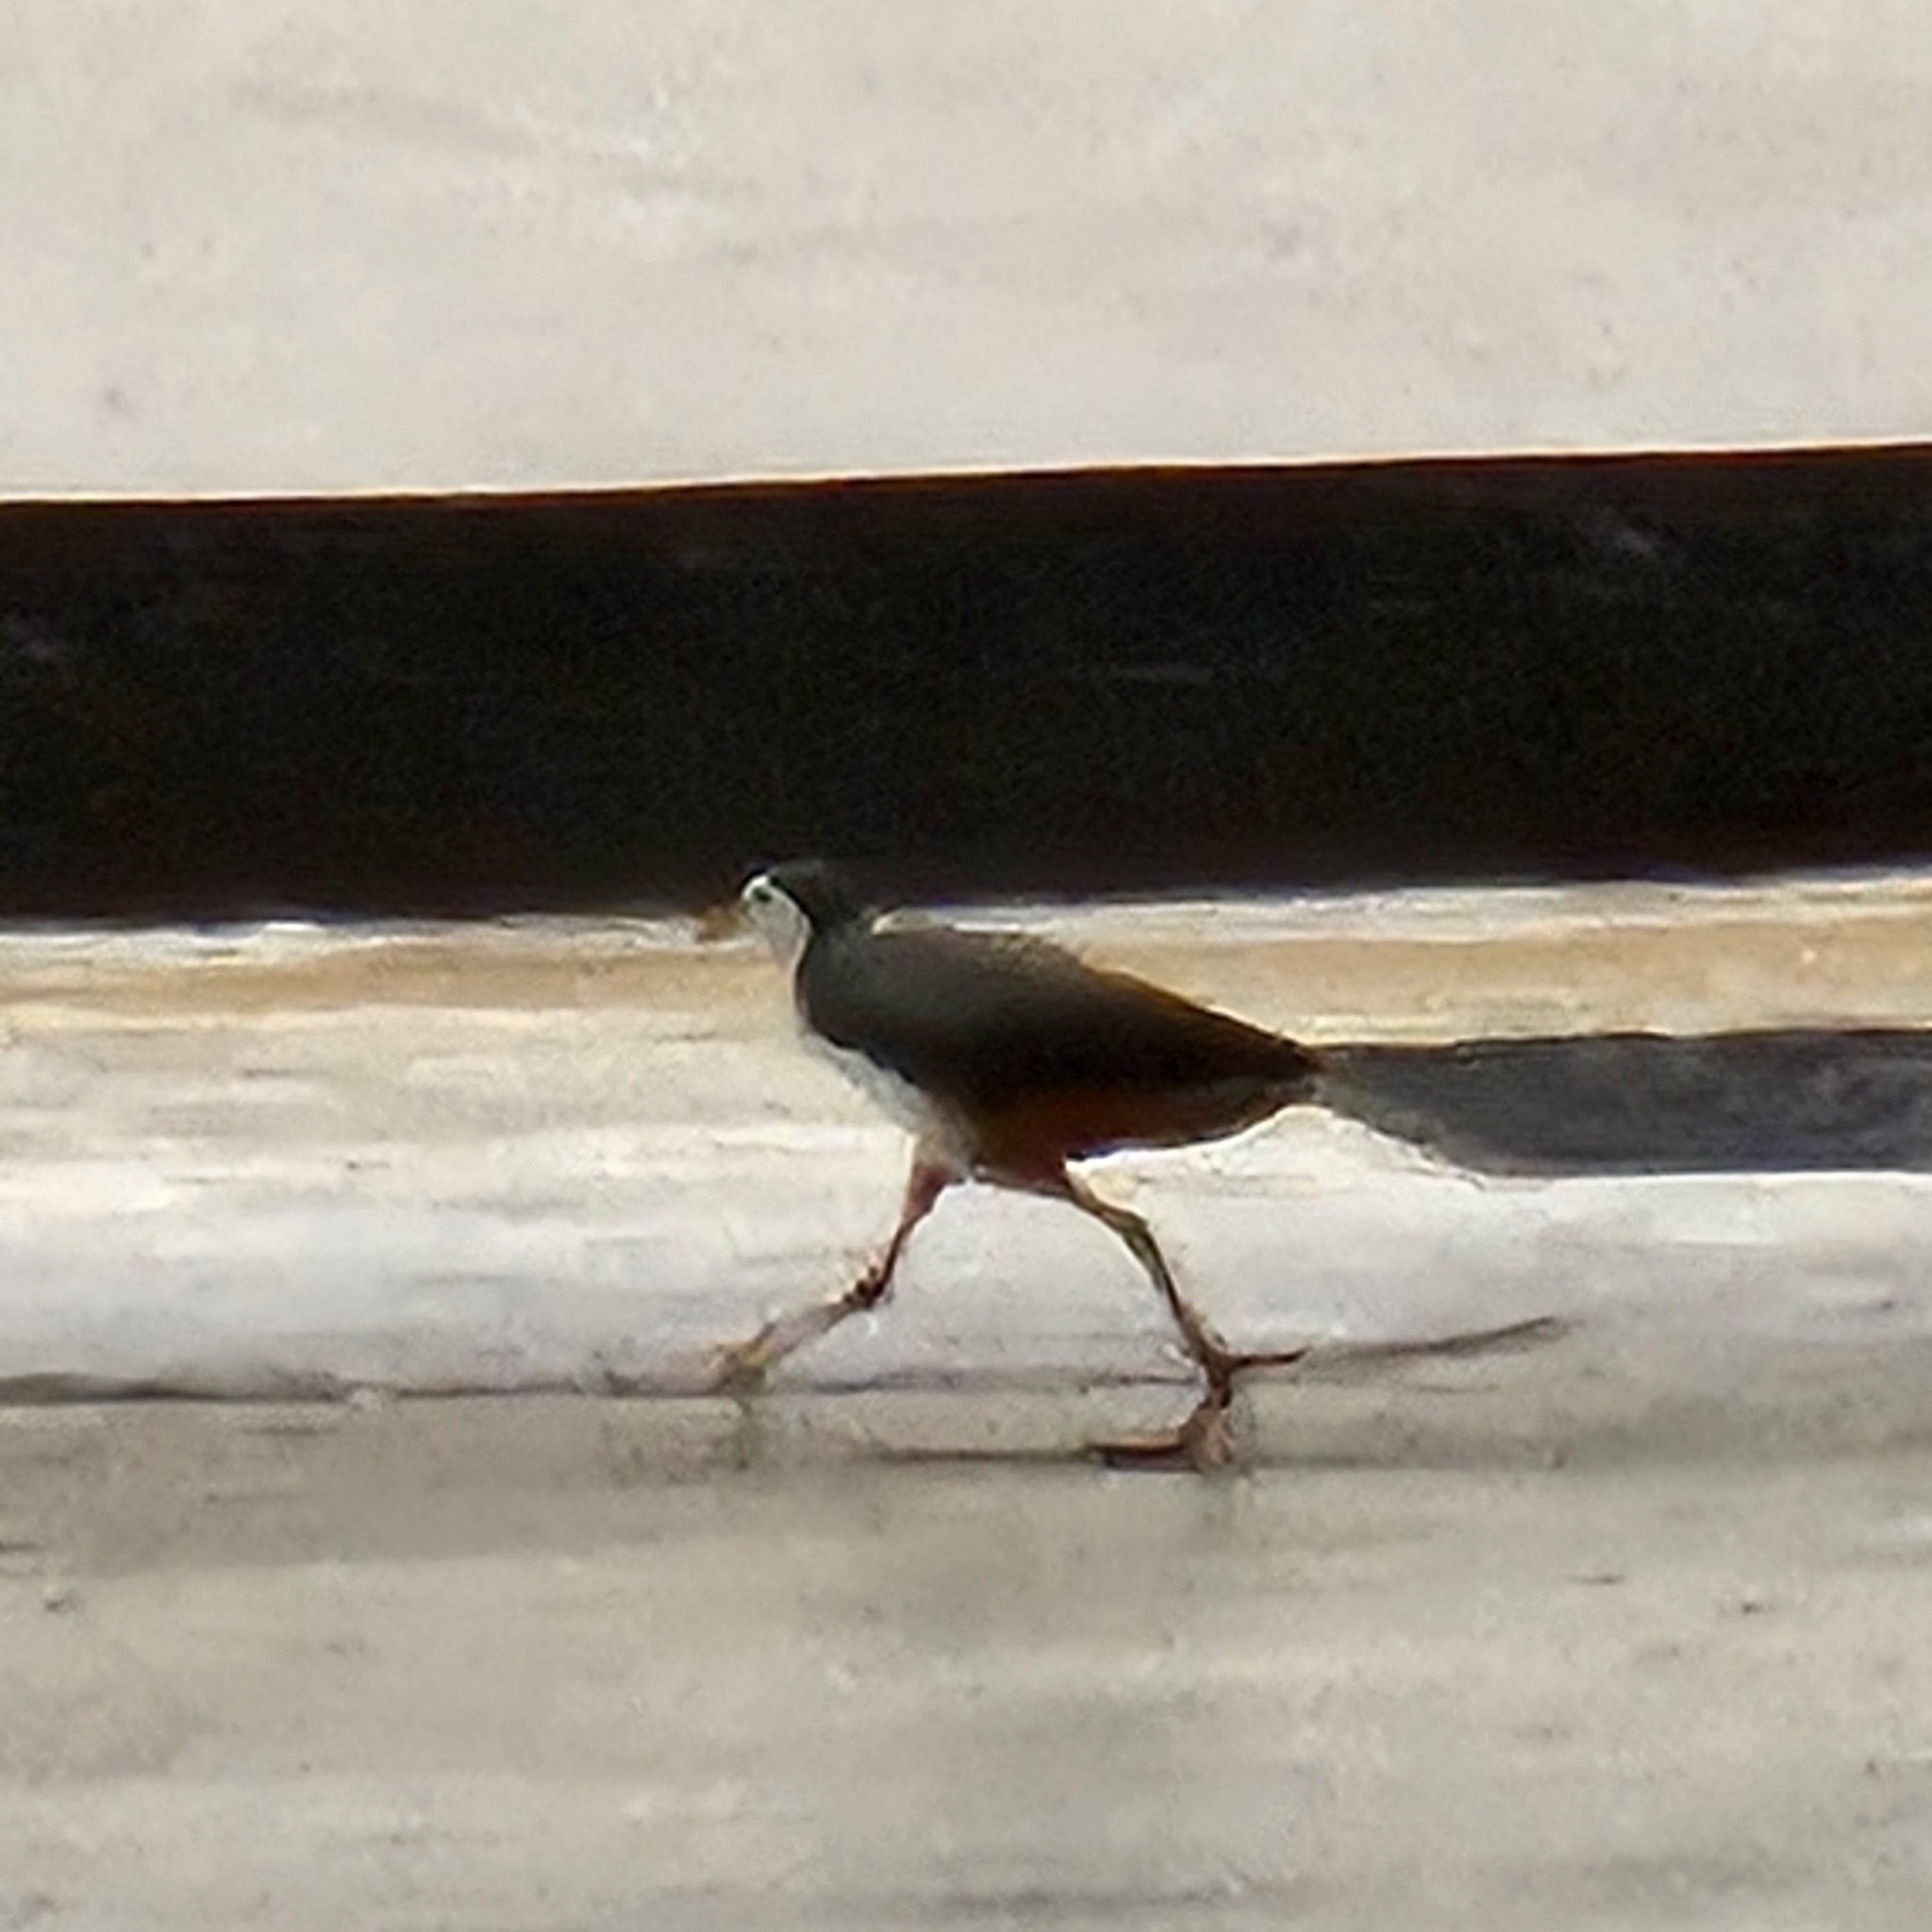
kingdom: Animalia
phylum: Chordata
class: Aves
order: Gruiformes
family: Rallidae
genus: Amaurornis
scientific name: Amaurornis phoenicurus
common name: White-breasted waterhen
